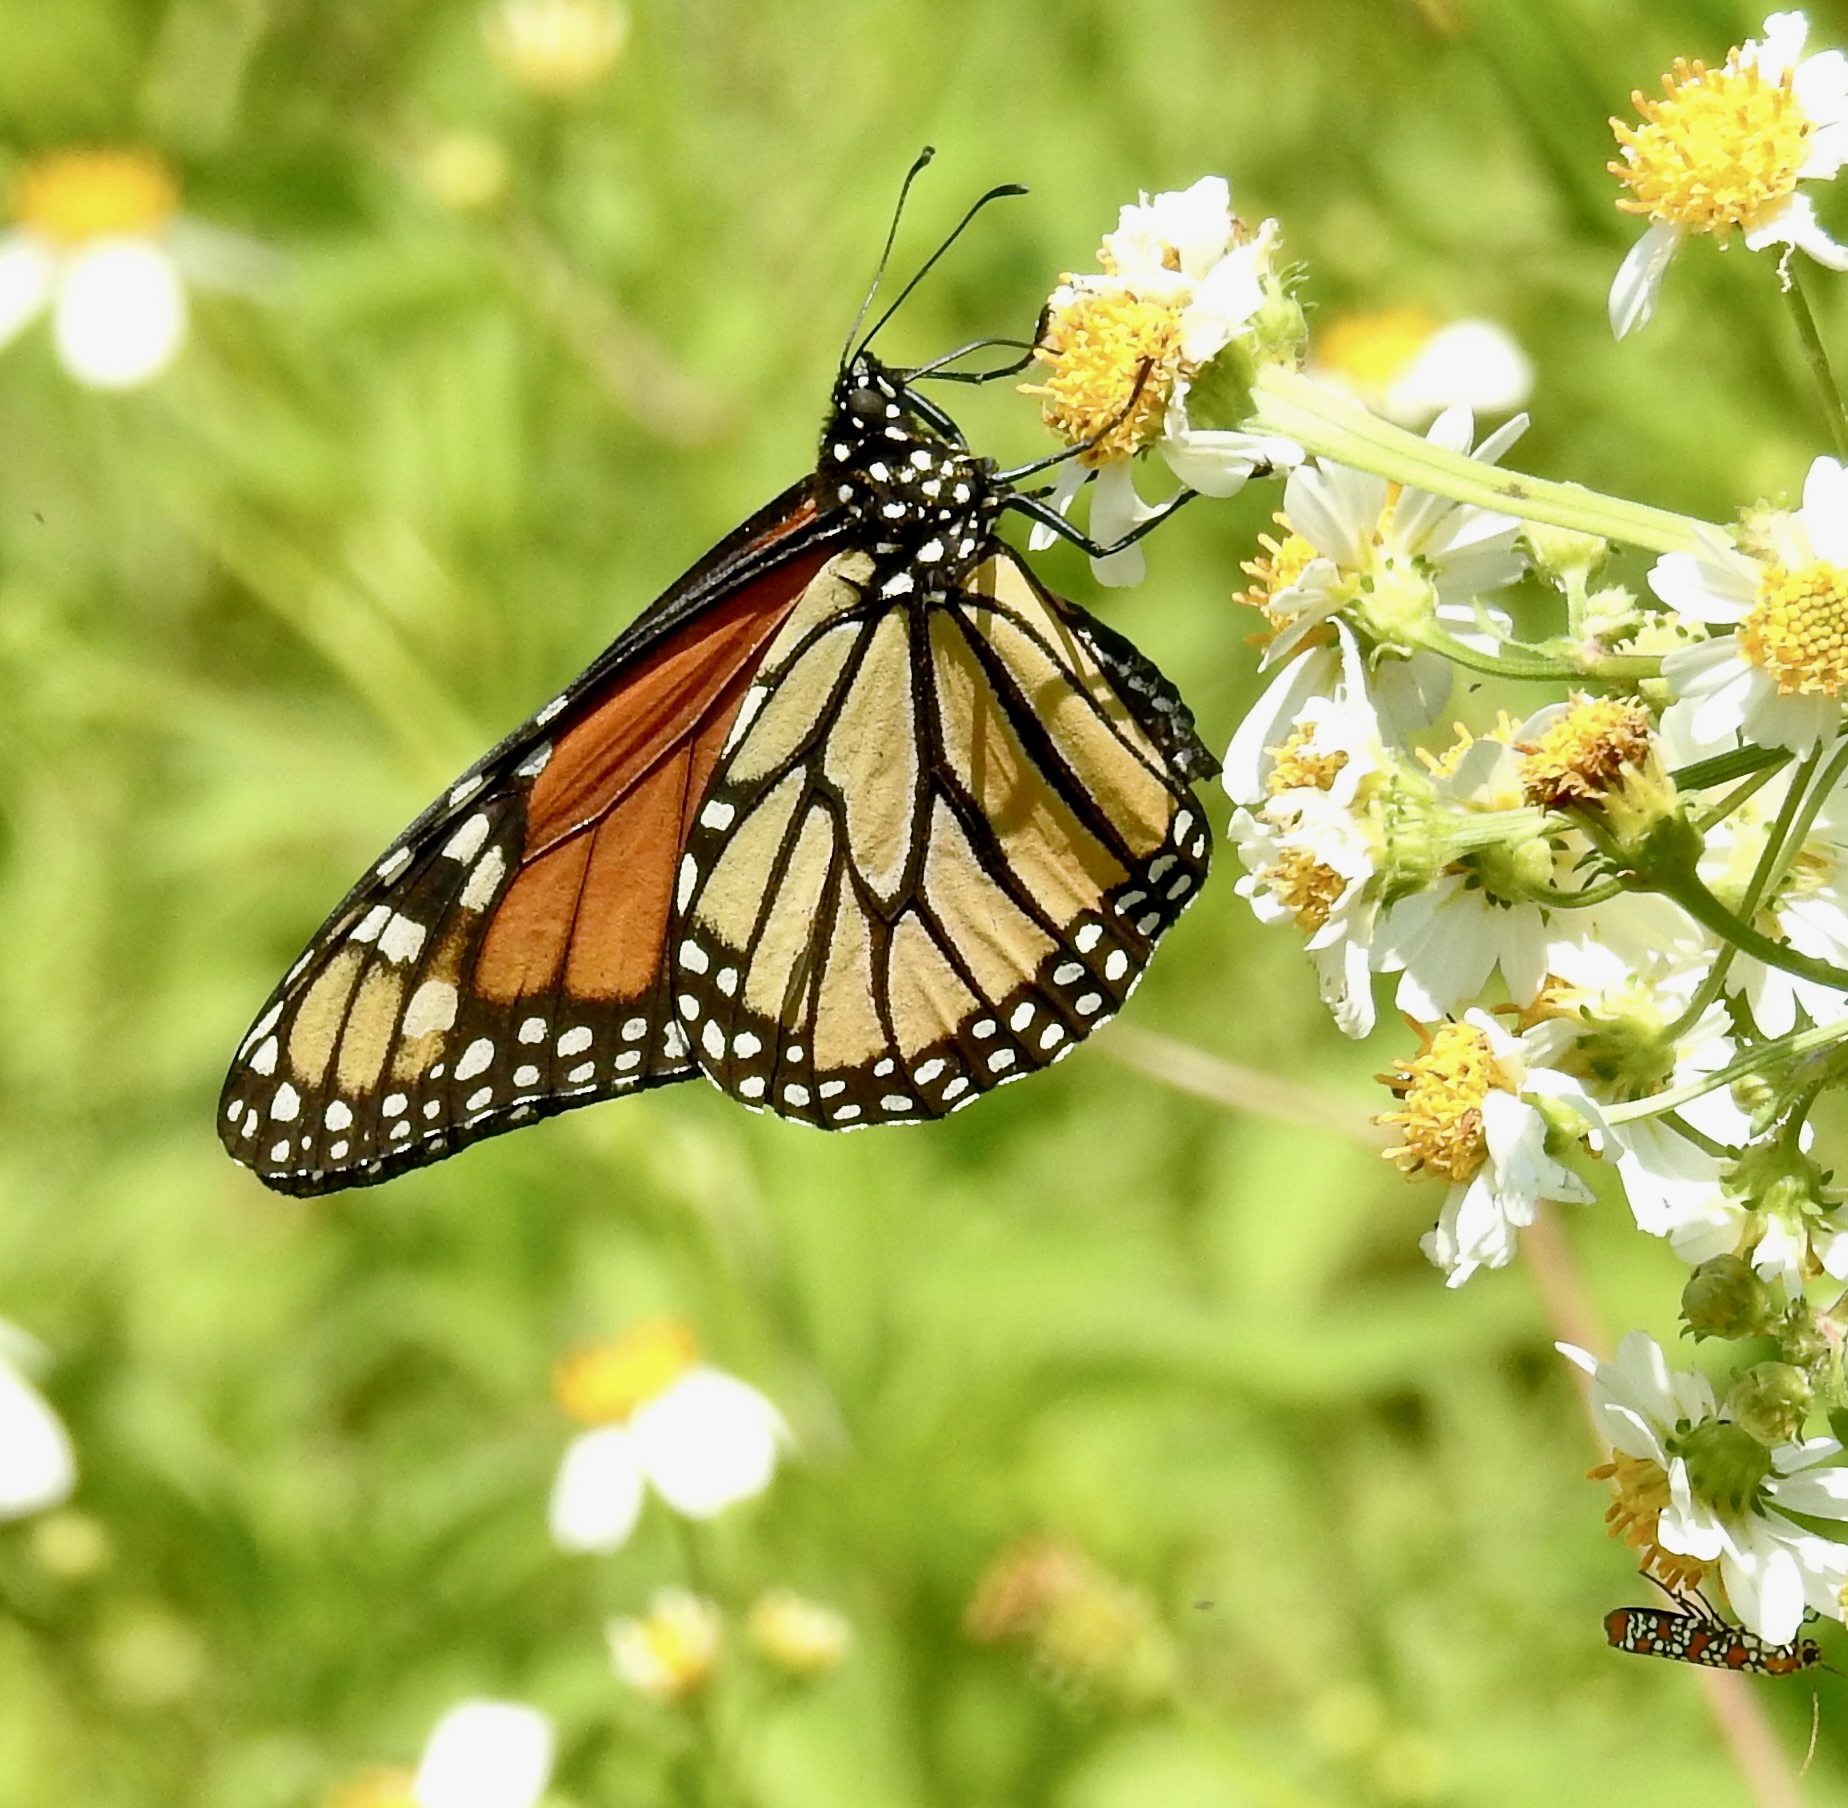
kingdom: Animalia
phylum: Arthropoda
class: Insecta
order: Lepidoptera
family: Nymphalidae
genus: Danaus
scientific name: Danaus plexippus
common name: Monarch
